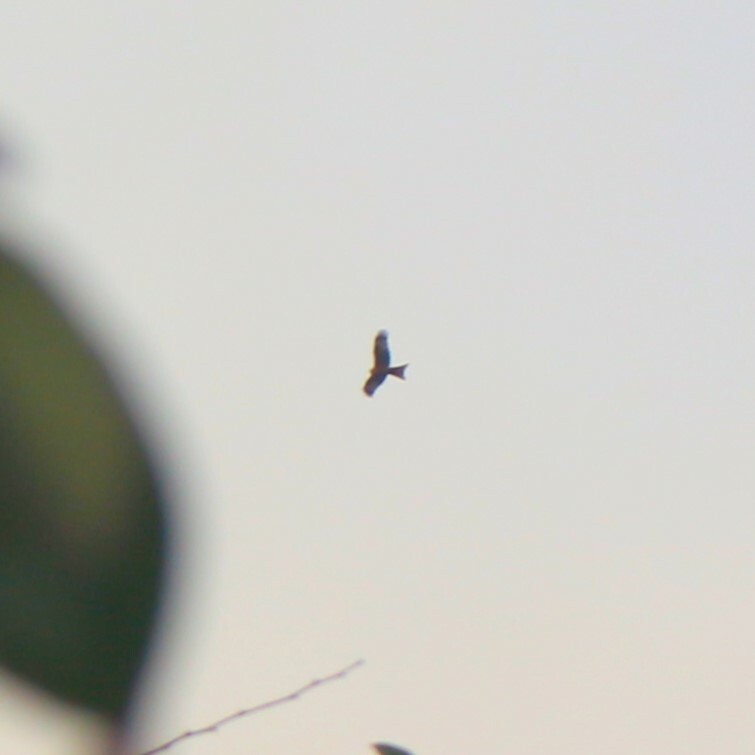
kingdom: Animalia
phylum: Chordata
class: Aves
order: Accipitriformes
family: Accipitridae
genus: Milvus
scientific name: Milvus milvus
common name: Red kite
